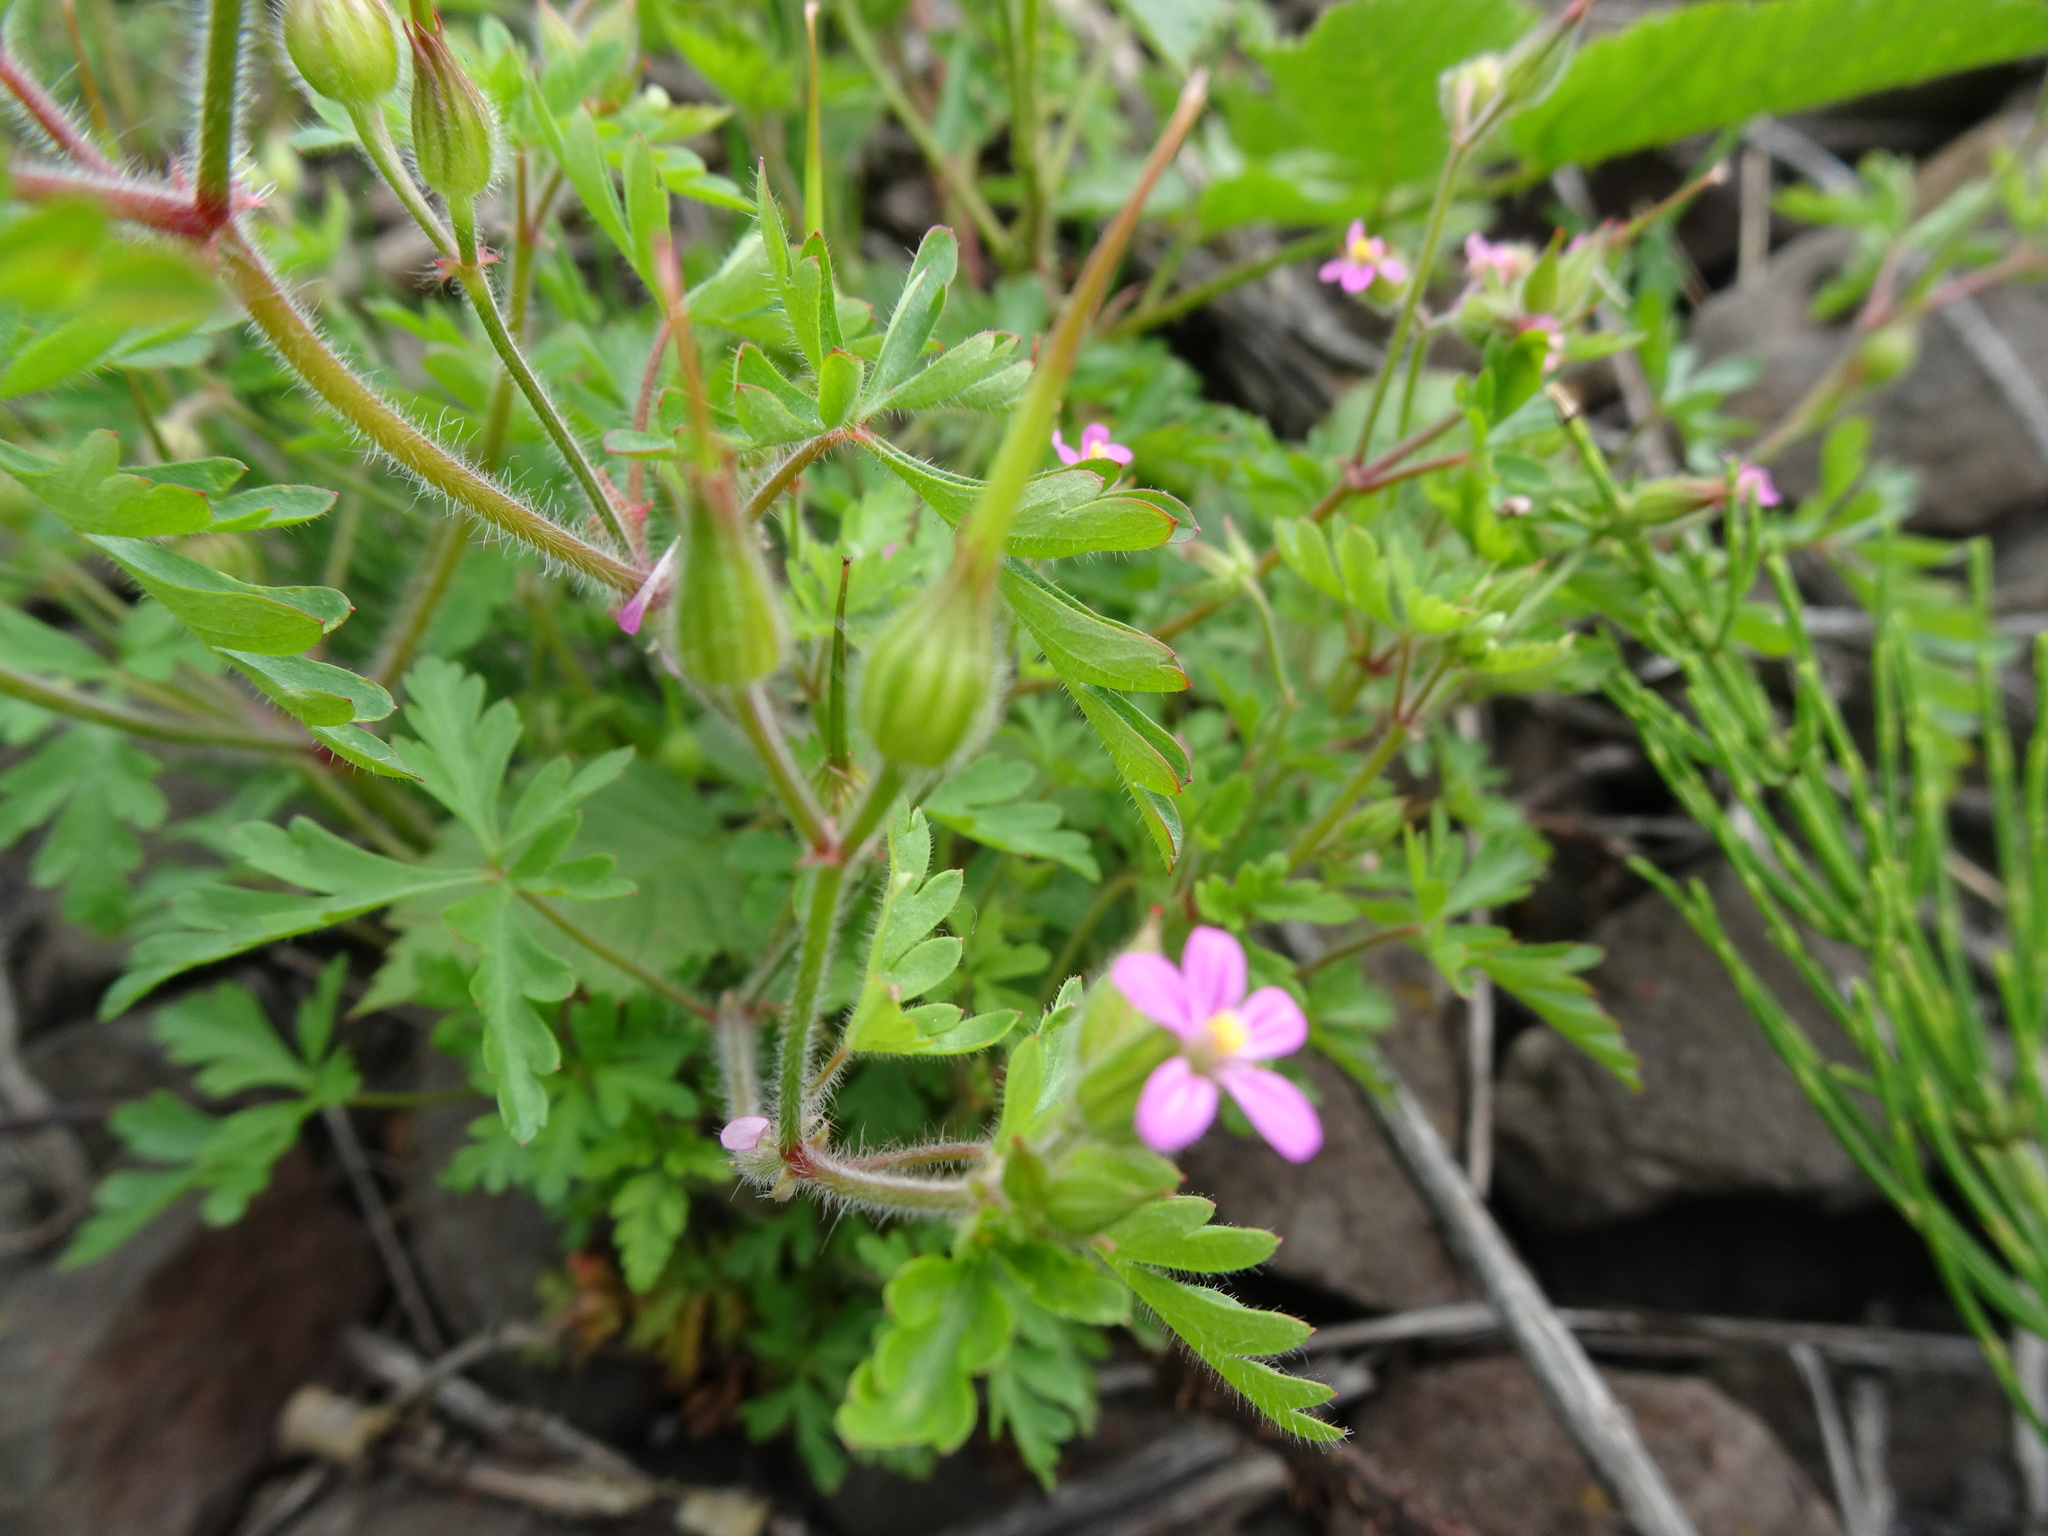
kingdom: Plantae
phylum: Tracheophyta
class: Magnoliopsida
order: Geraniales
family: Geraniaceae
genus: Geranium
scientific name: Geranium purpureum
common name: Little-robin
